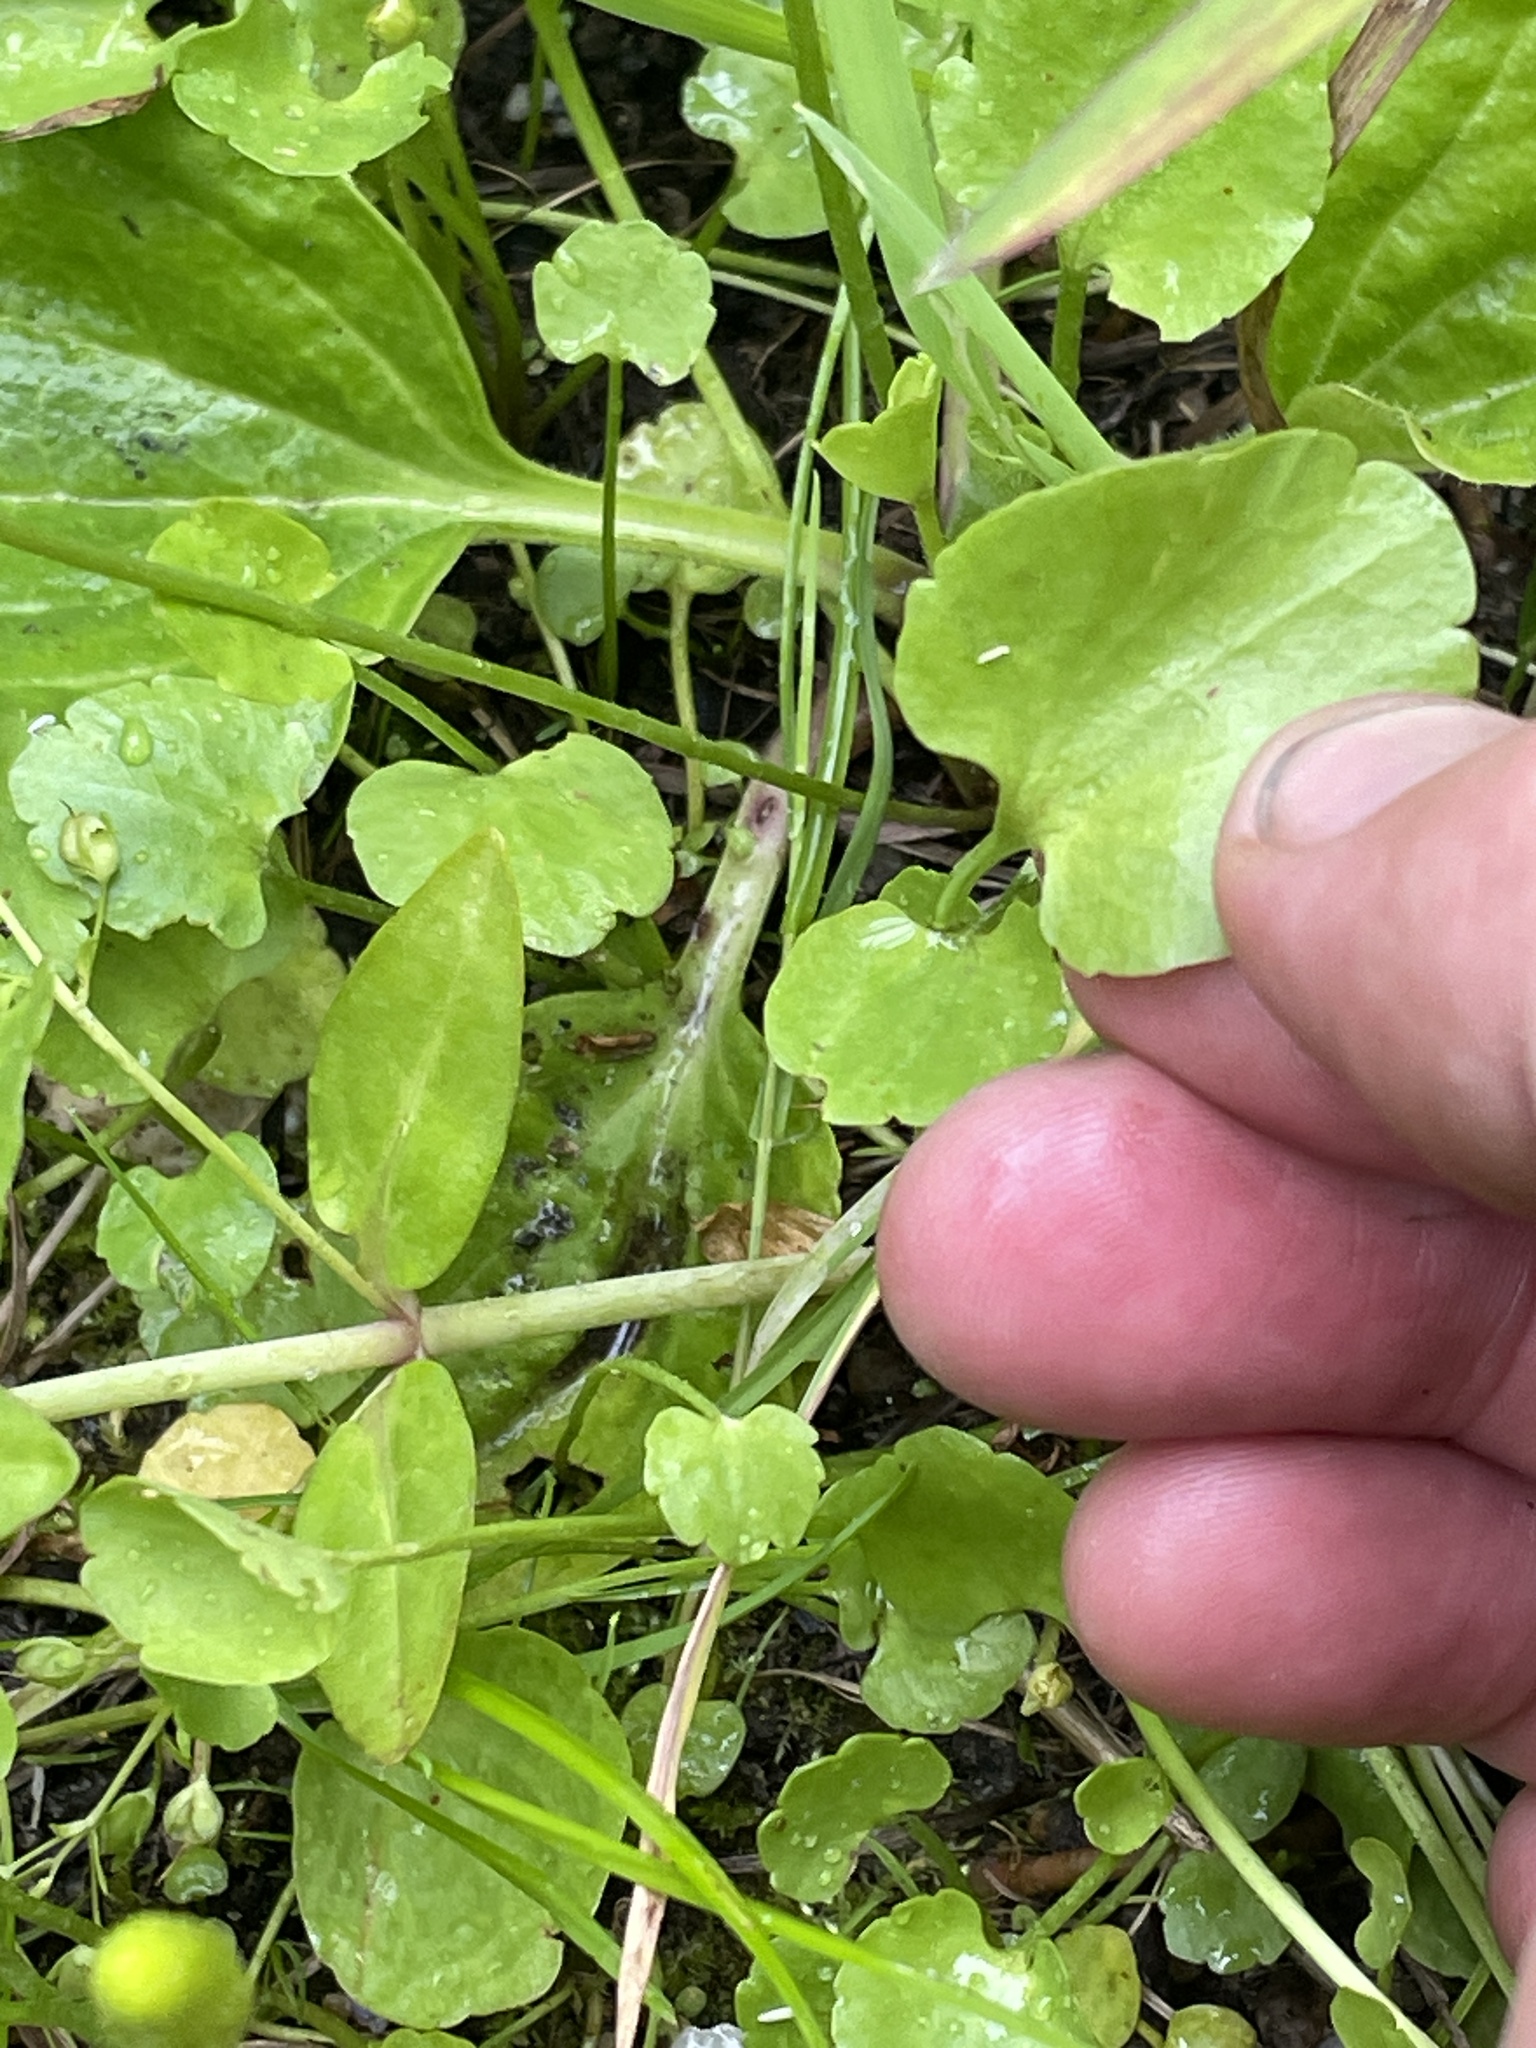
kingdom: Plantae
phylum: Tracheophyta
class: Magnoliopsida
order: Ranunculales
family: Ranunculaceae
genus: Halerpestes
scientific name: Halerpestes cymbalaria
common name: Seaside crowfoot
